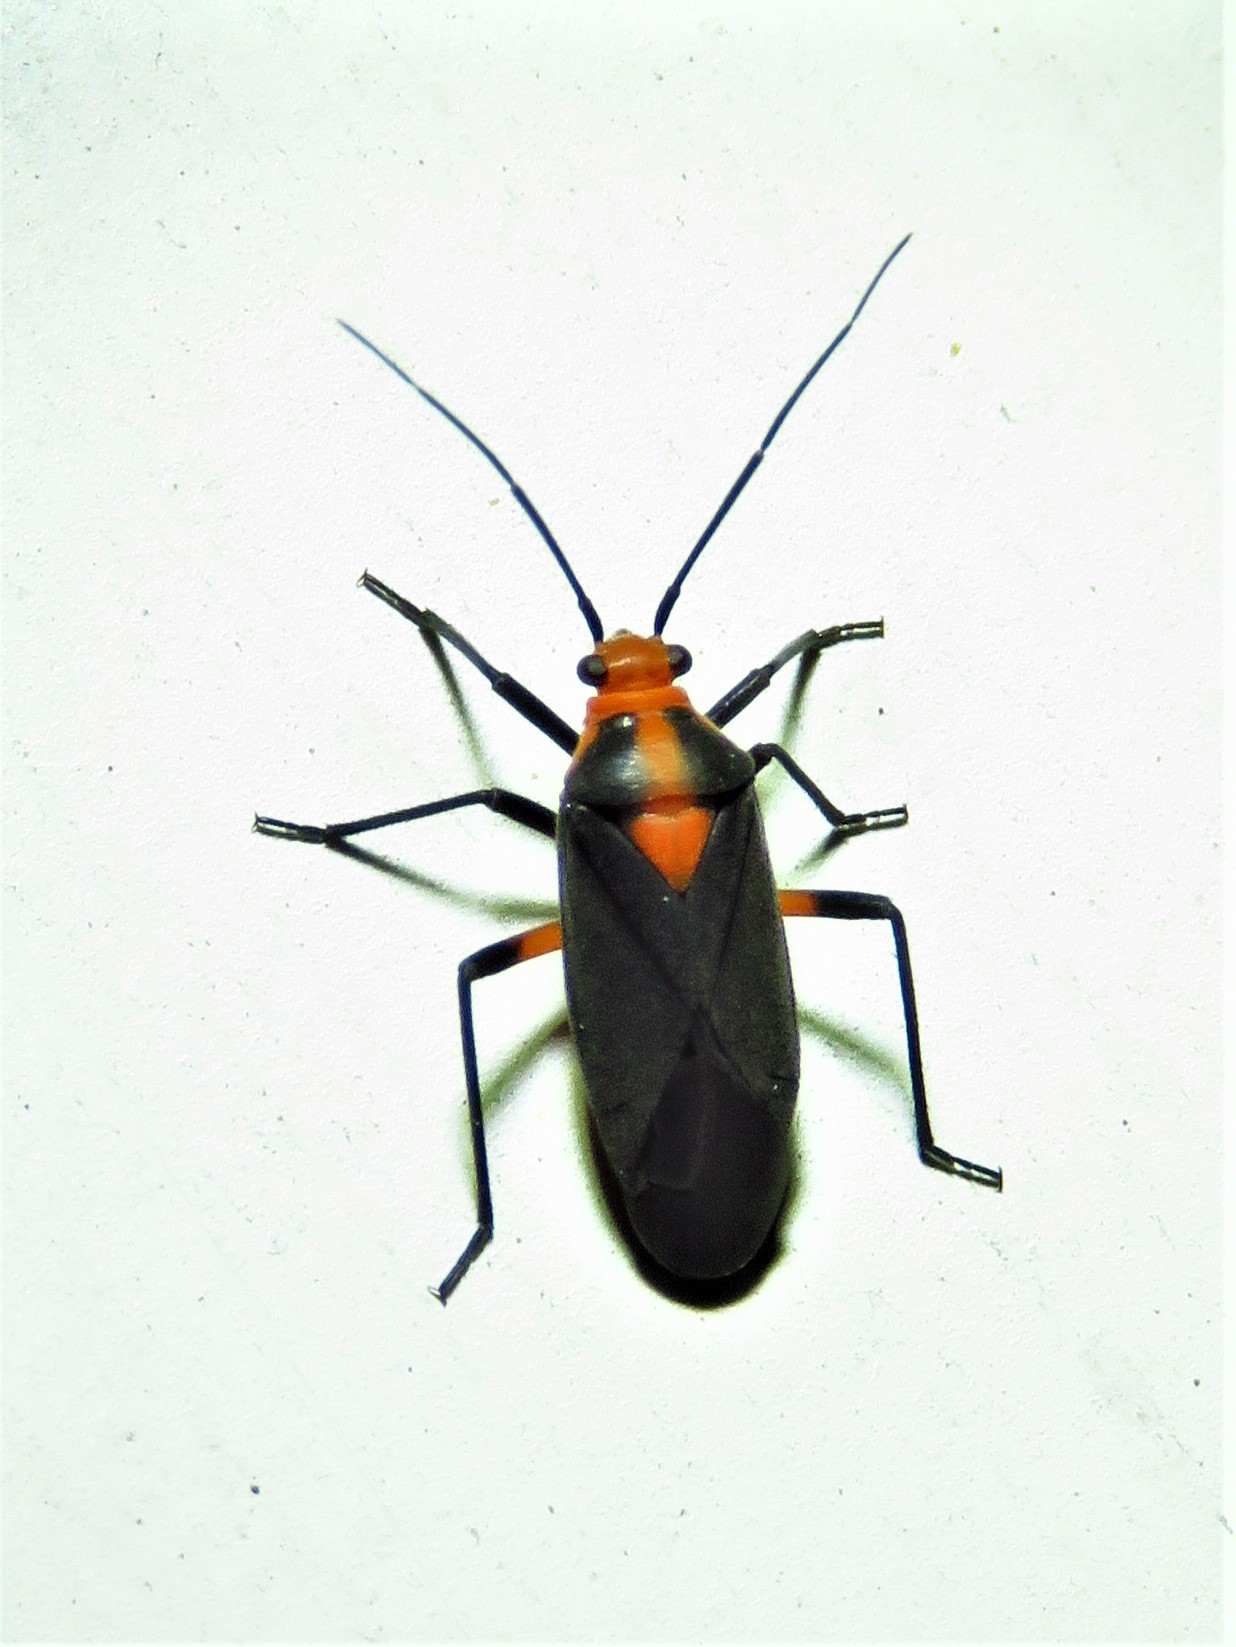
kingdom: Animalia
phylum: Arthropoda
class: Insecta
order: Hemiptera
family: Miridae
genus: Prepops
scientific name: Prepops rubrovittatus
